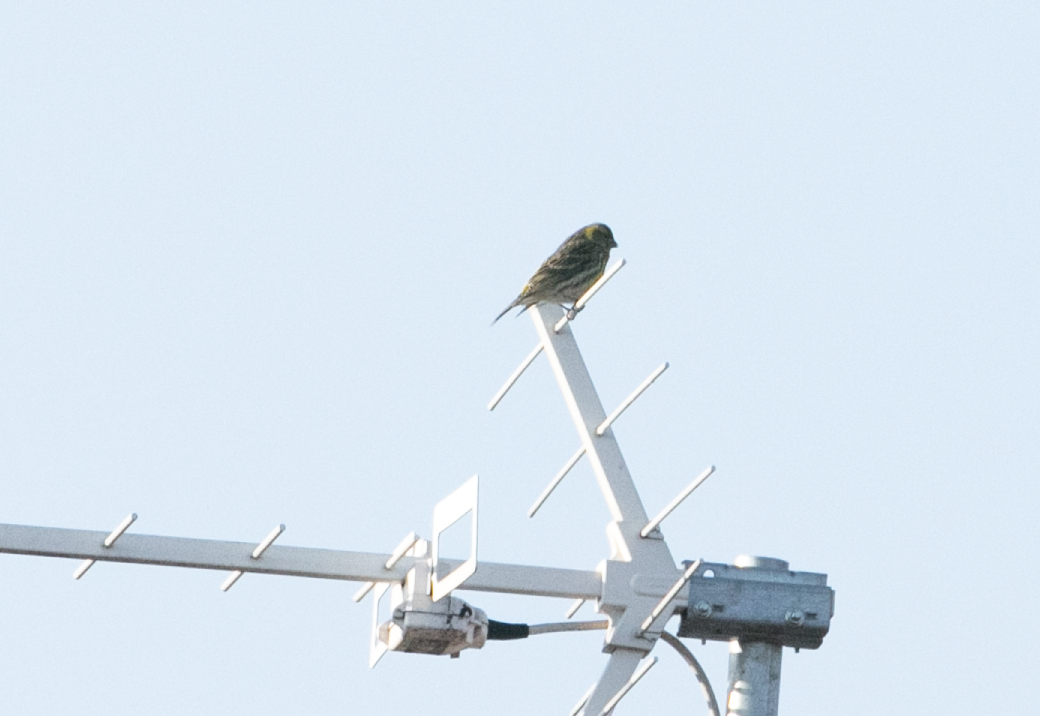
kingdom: Animalia
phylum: Chordata
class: Aves
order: Passeriformes
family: Fringillidae
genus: Serinus
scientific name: Serinus serinus
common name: European serin
